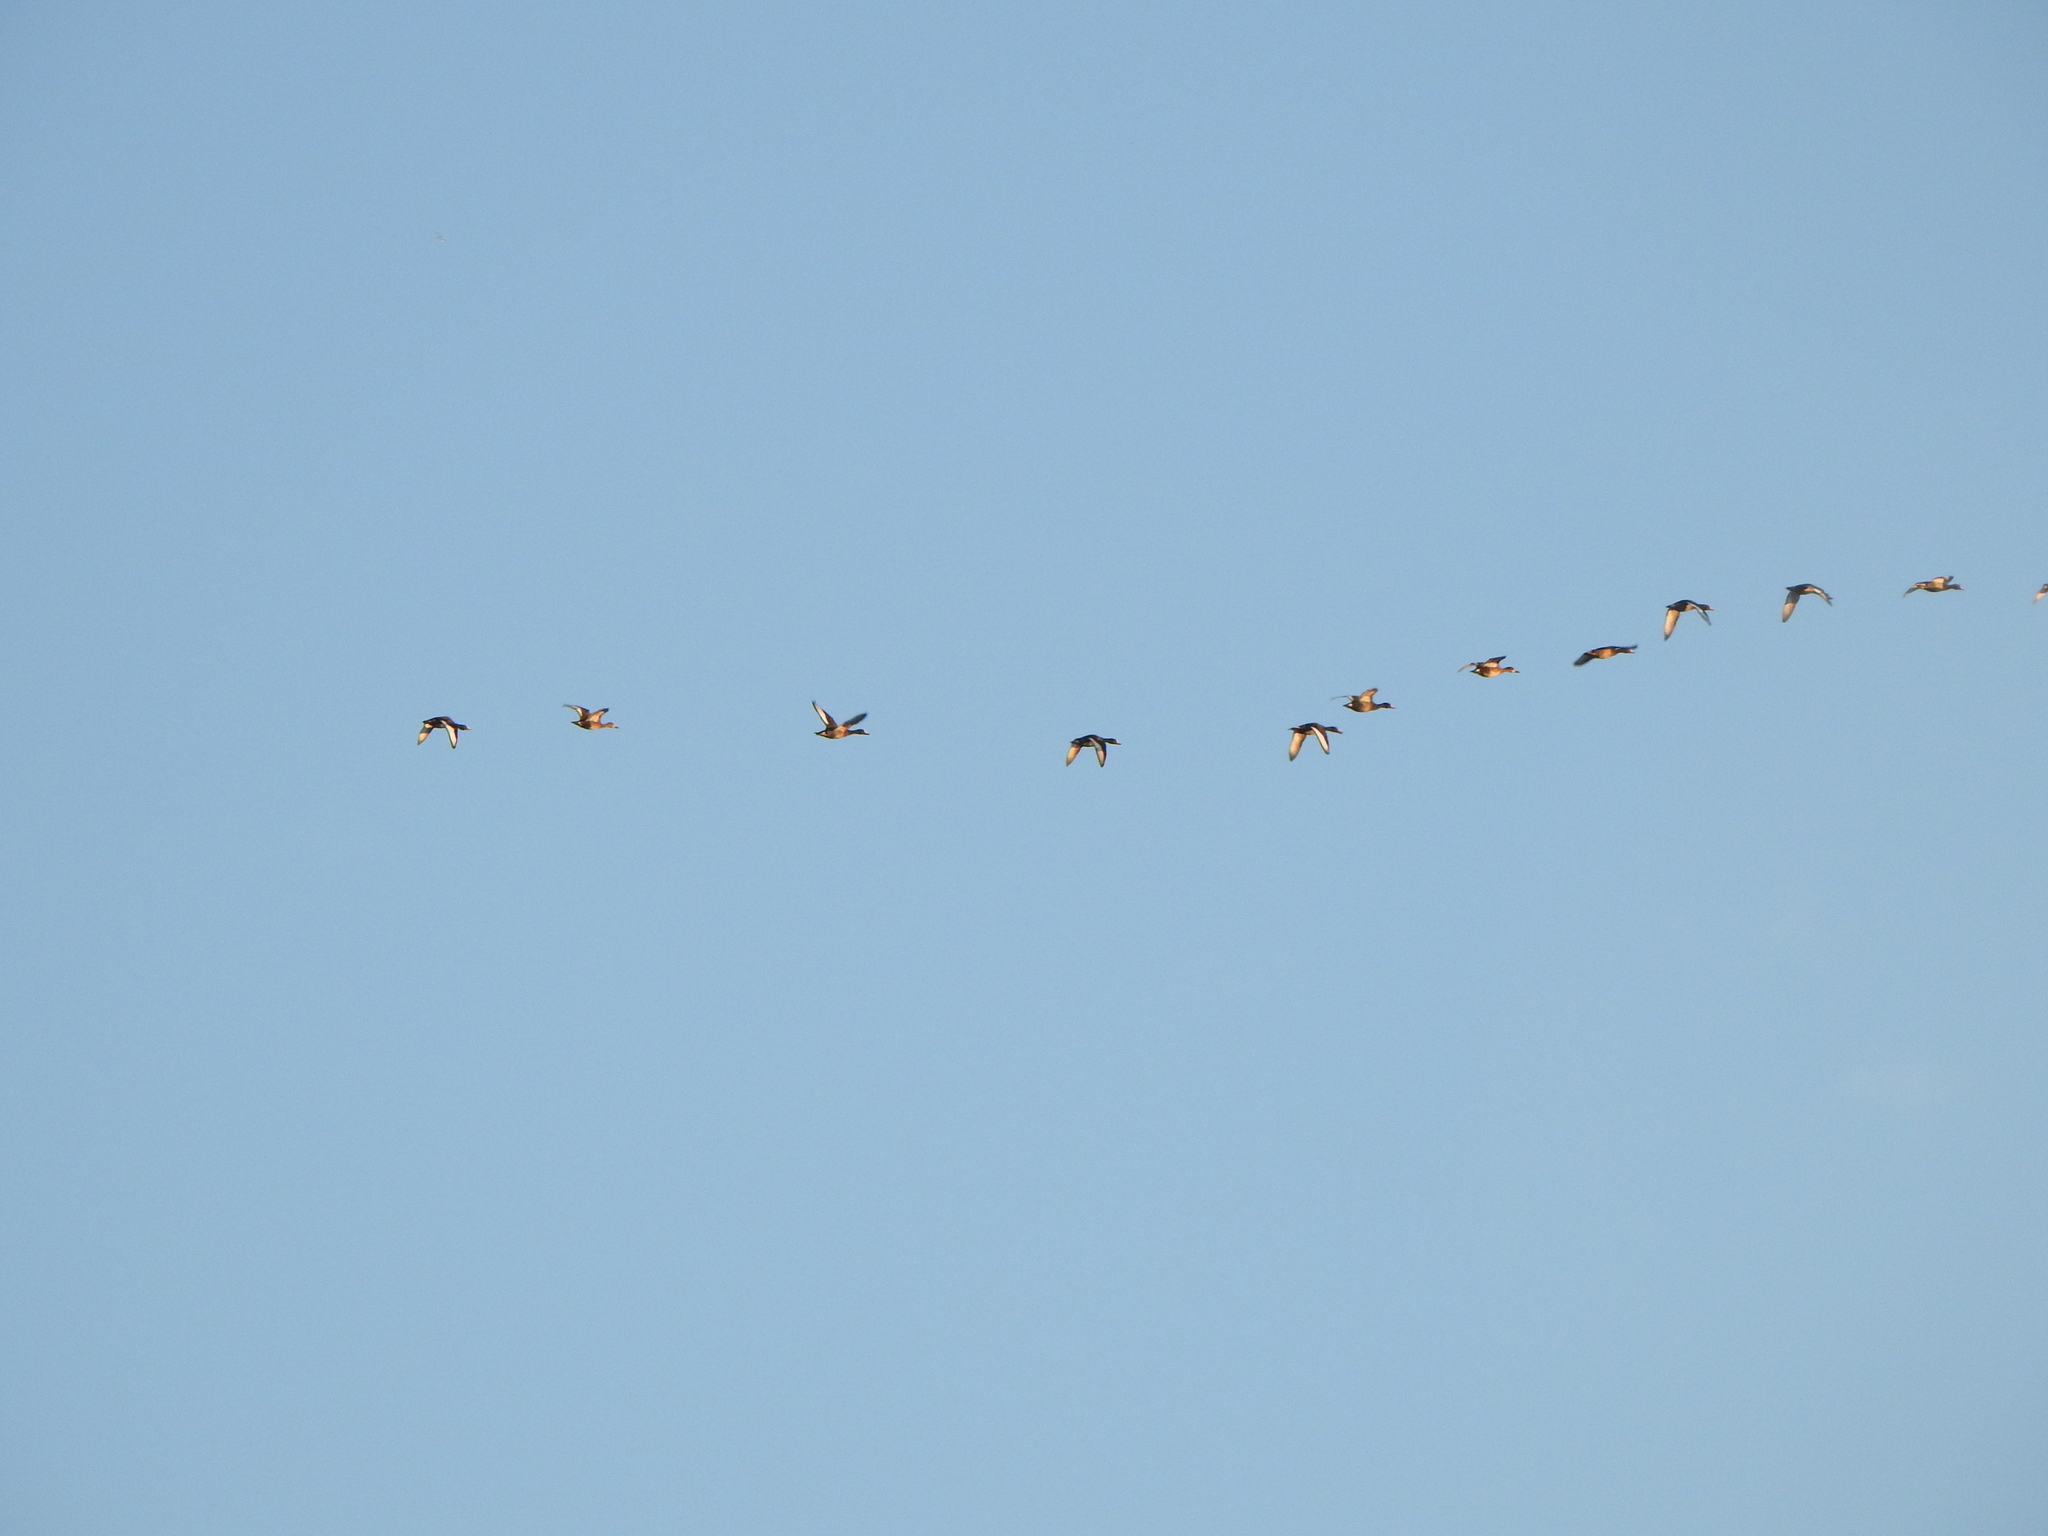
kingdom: Animalia
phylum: Chordata
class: Aves
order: Anseriformes
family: Anatidae
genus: Netta
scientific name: Netta peposaca
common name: Rosy-billed pochard
